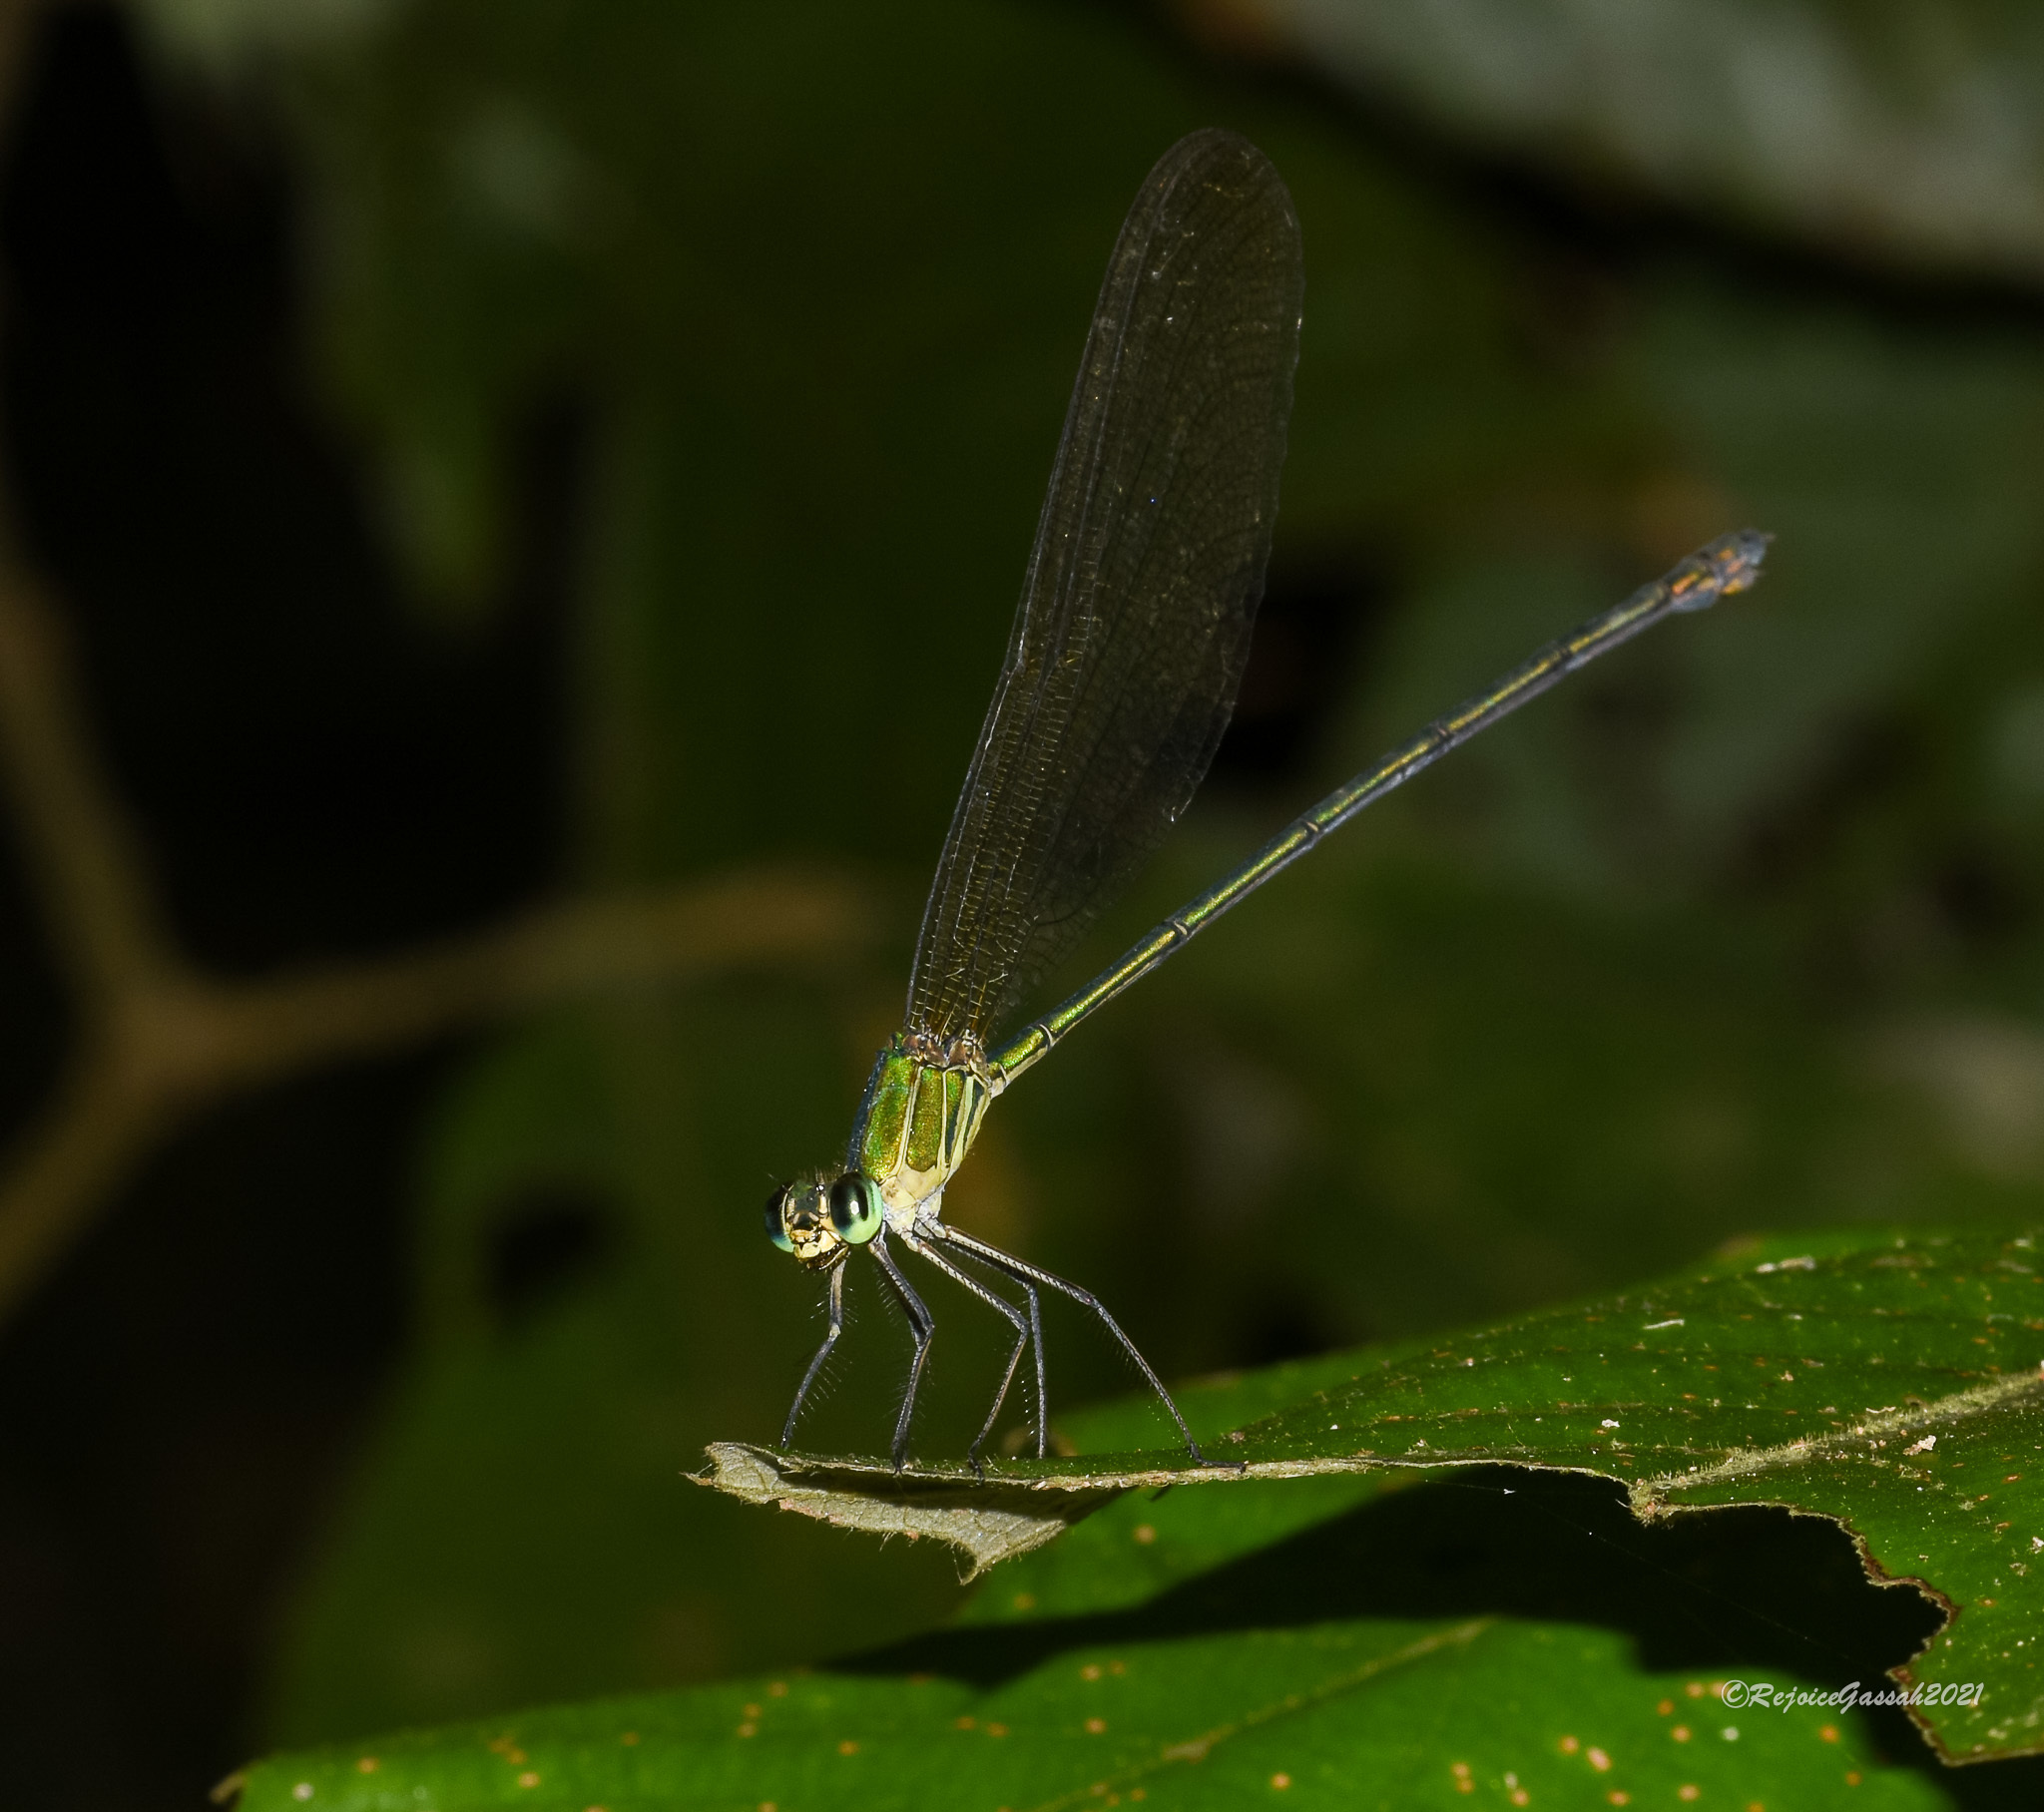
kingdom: Animalia
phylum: Arthropoda
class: Insecta
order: Odonata
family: Calopterygidae
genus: Vestalis
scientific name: Vestalis gracilis
